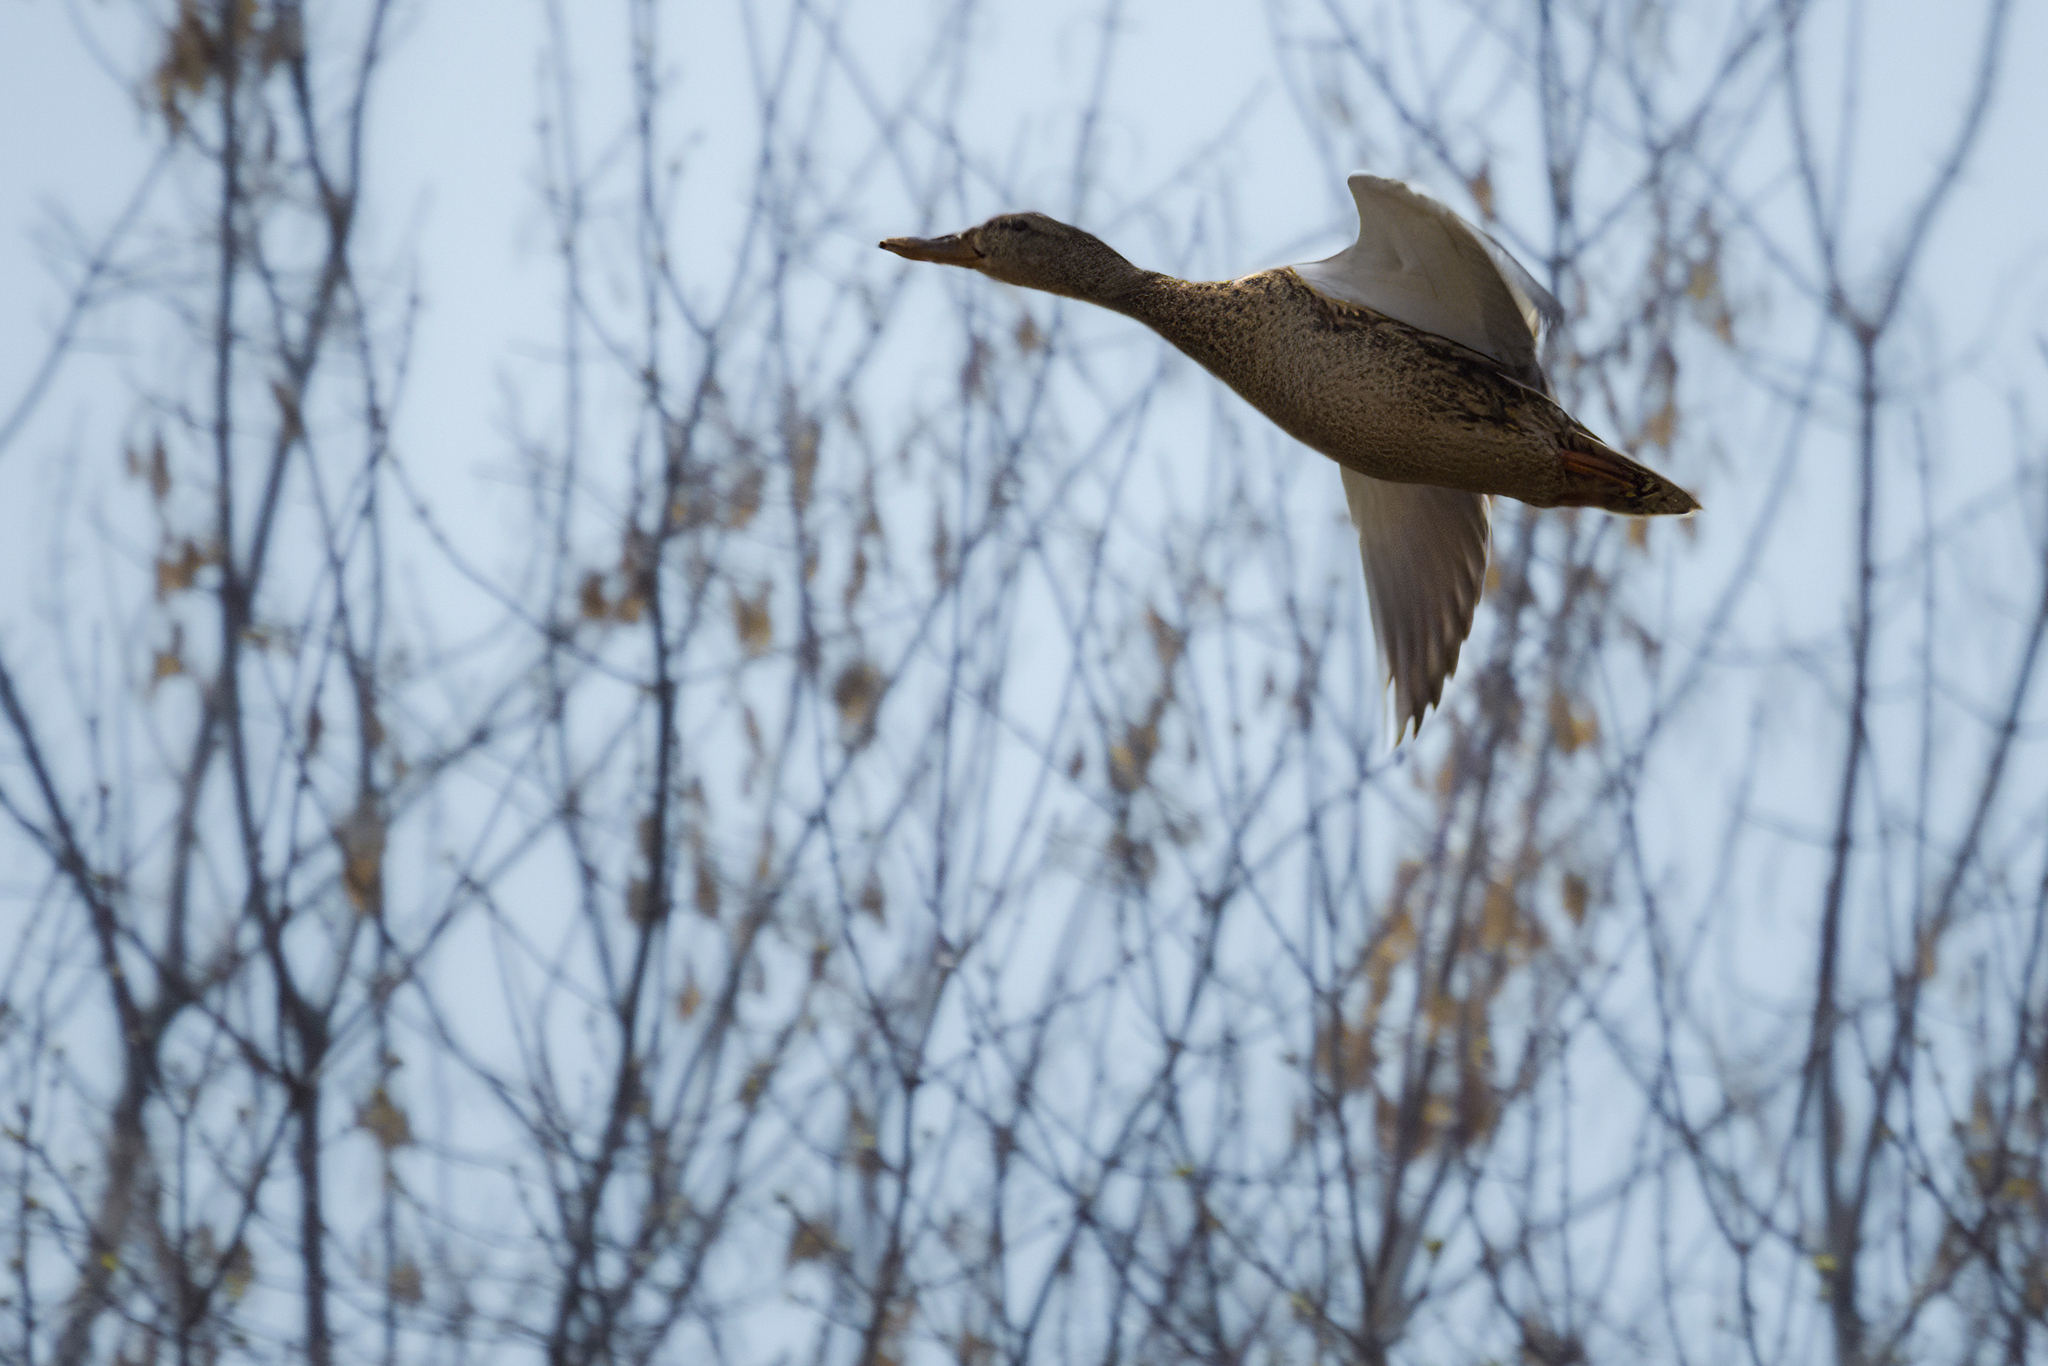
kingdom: Animalia
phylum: Chordata
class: Aves
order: Anseriformes
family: Anatidae
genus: Anas
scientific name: Anas platyrhynchos
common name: Mallard
